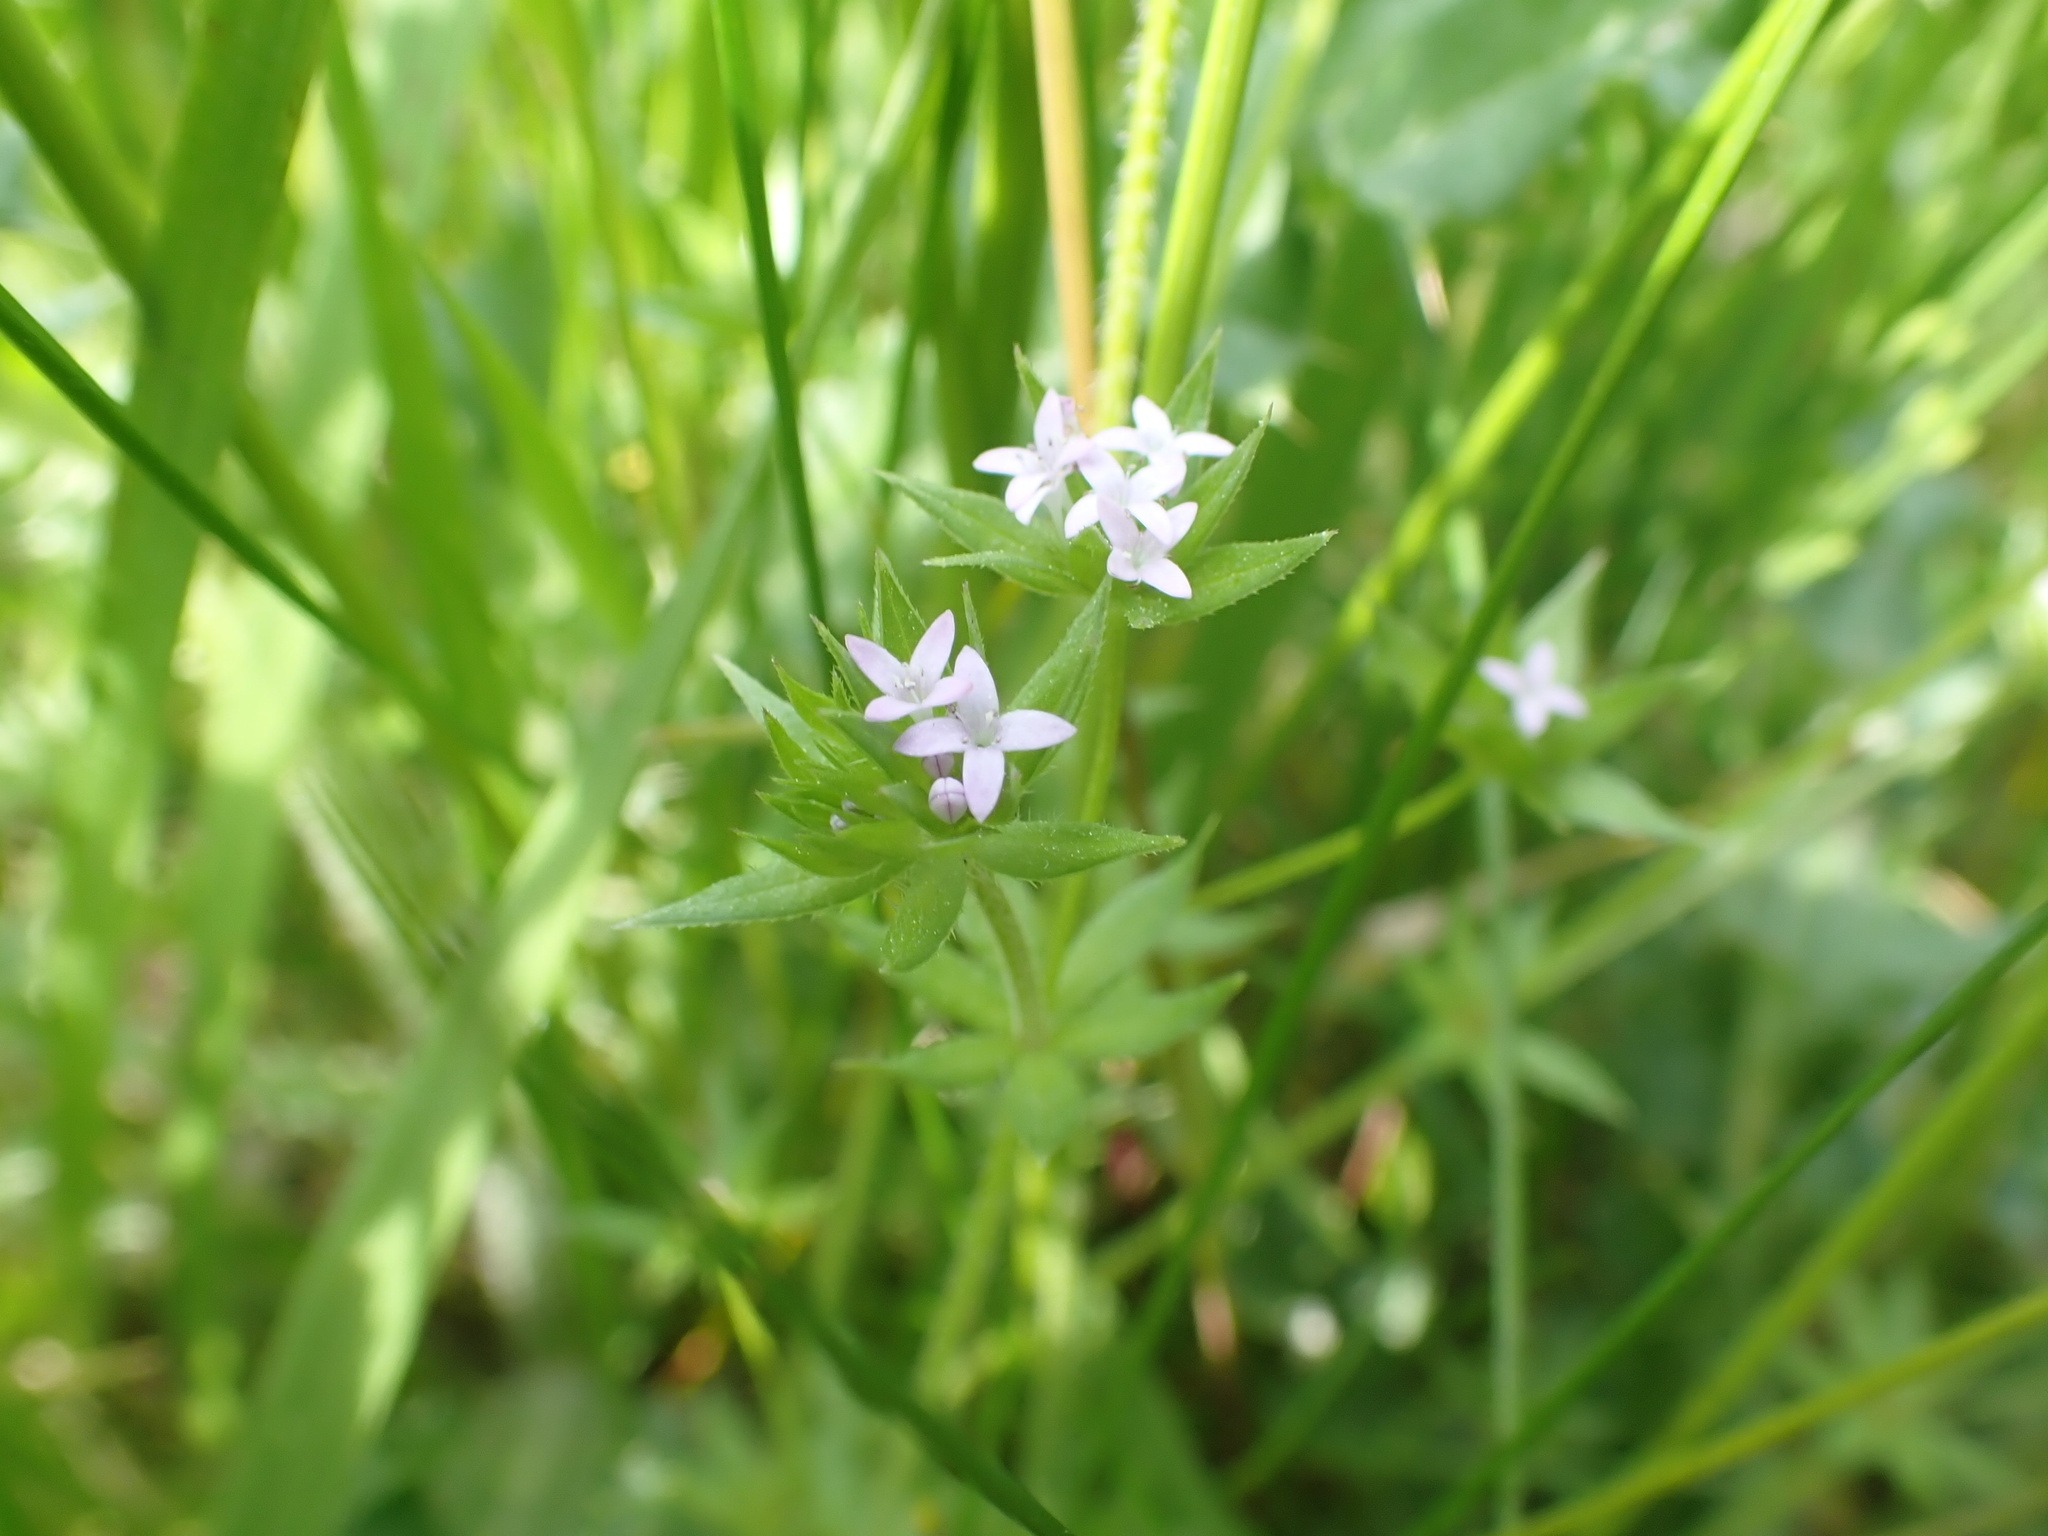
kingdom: Plantae
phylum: Tracheophyta
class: Magnoliopsida
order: Gentianales
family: Rubiaceae
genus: Sherardia
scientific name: Sherardia arvensis
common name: Field madder
